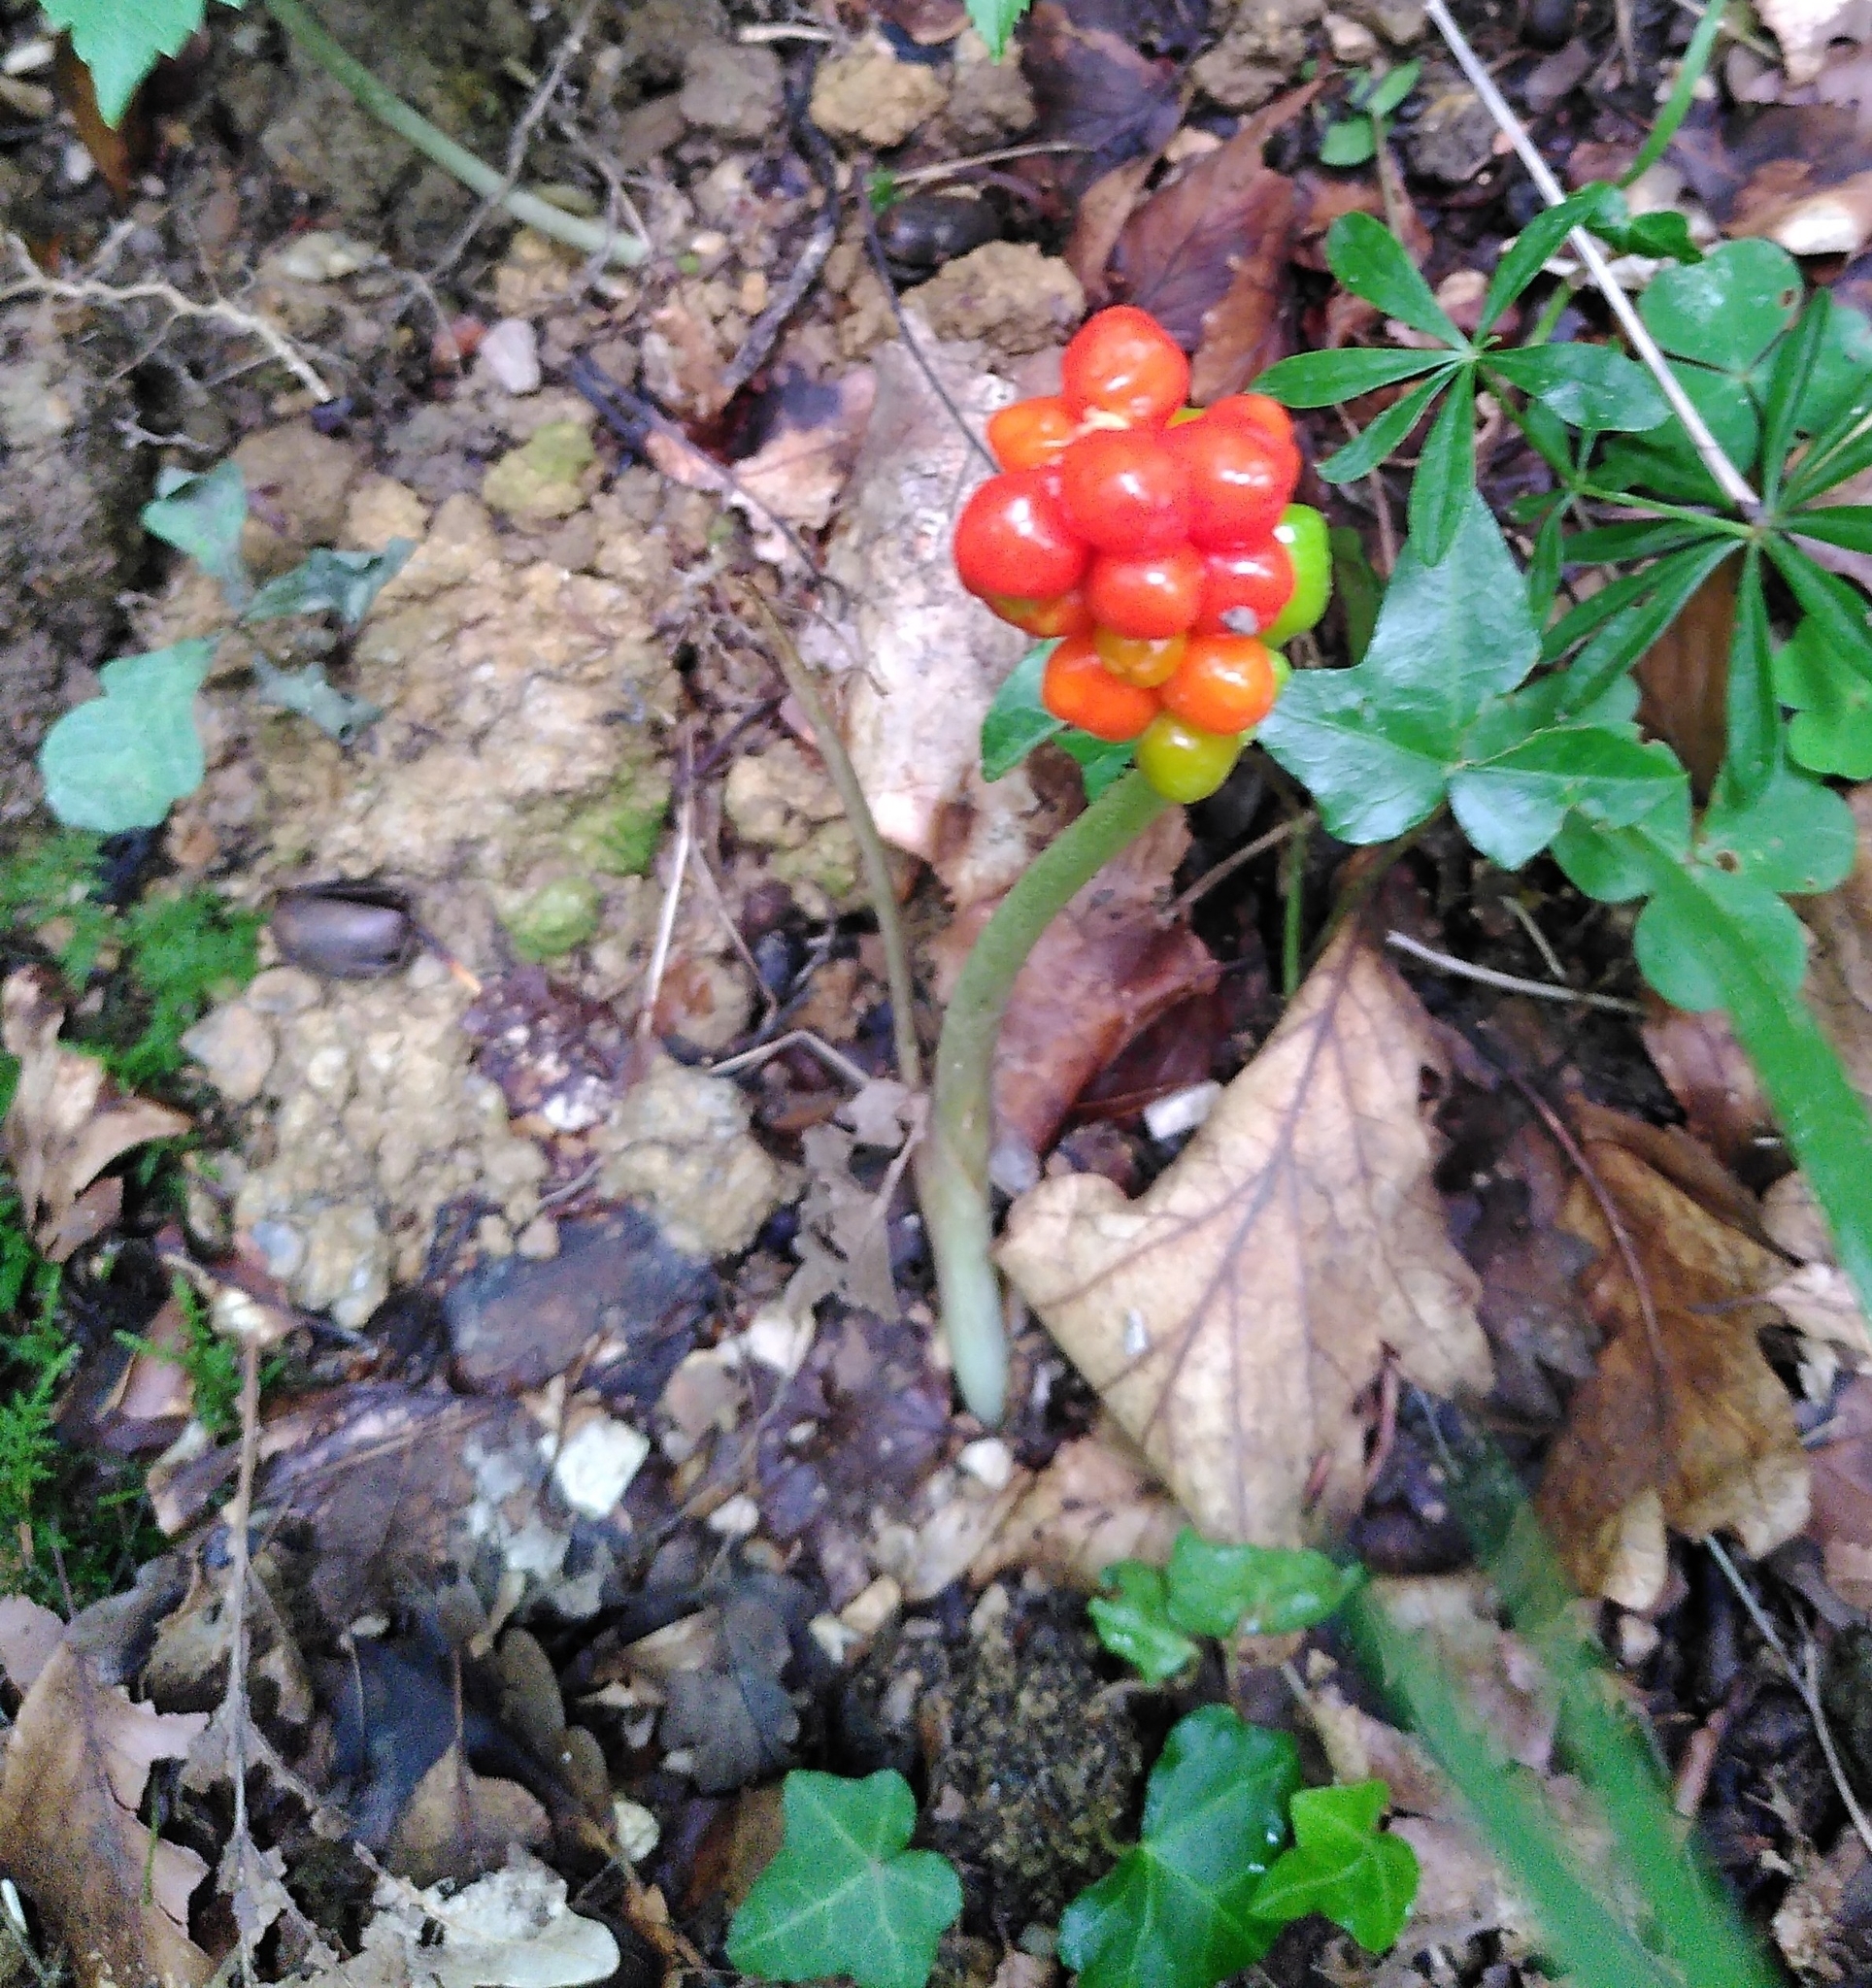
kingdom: Plantae
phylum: Tracheophyta
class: Liliopsida
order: Alismatales
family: Araceae
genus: Arum
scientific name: Arum maculatum
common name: Lords-and-ladies
